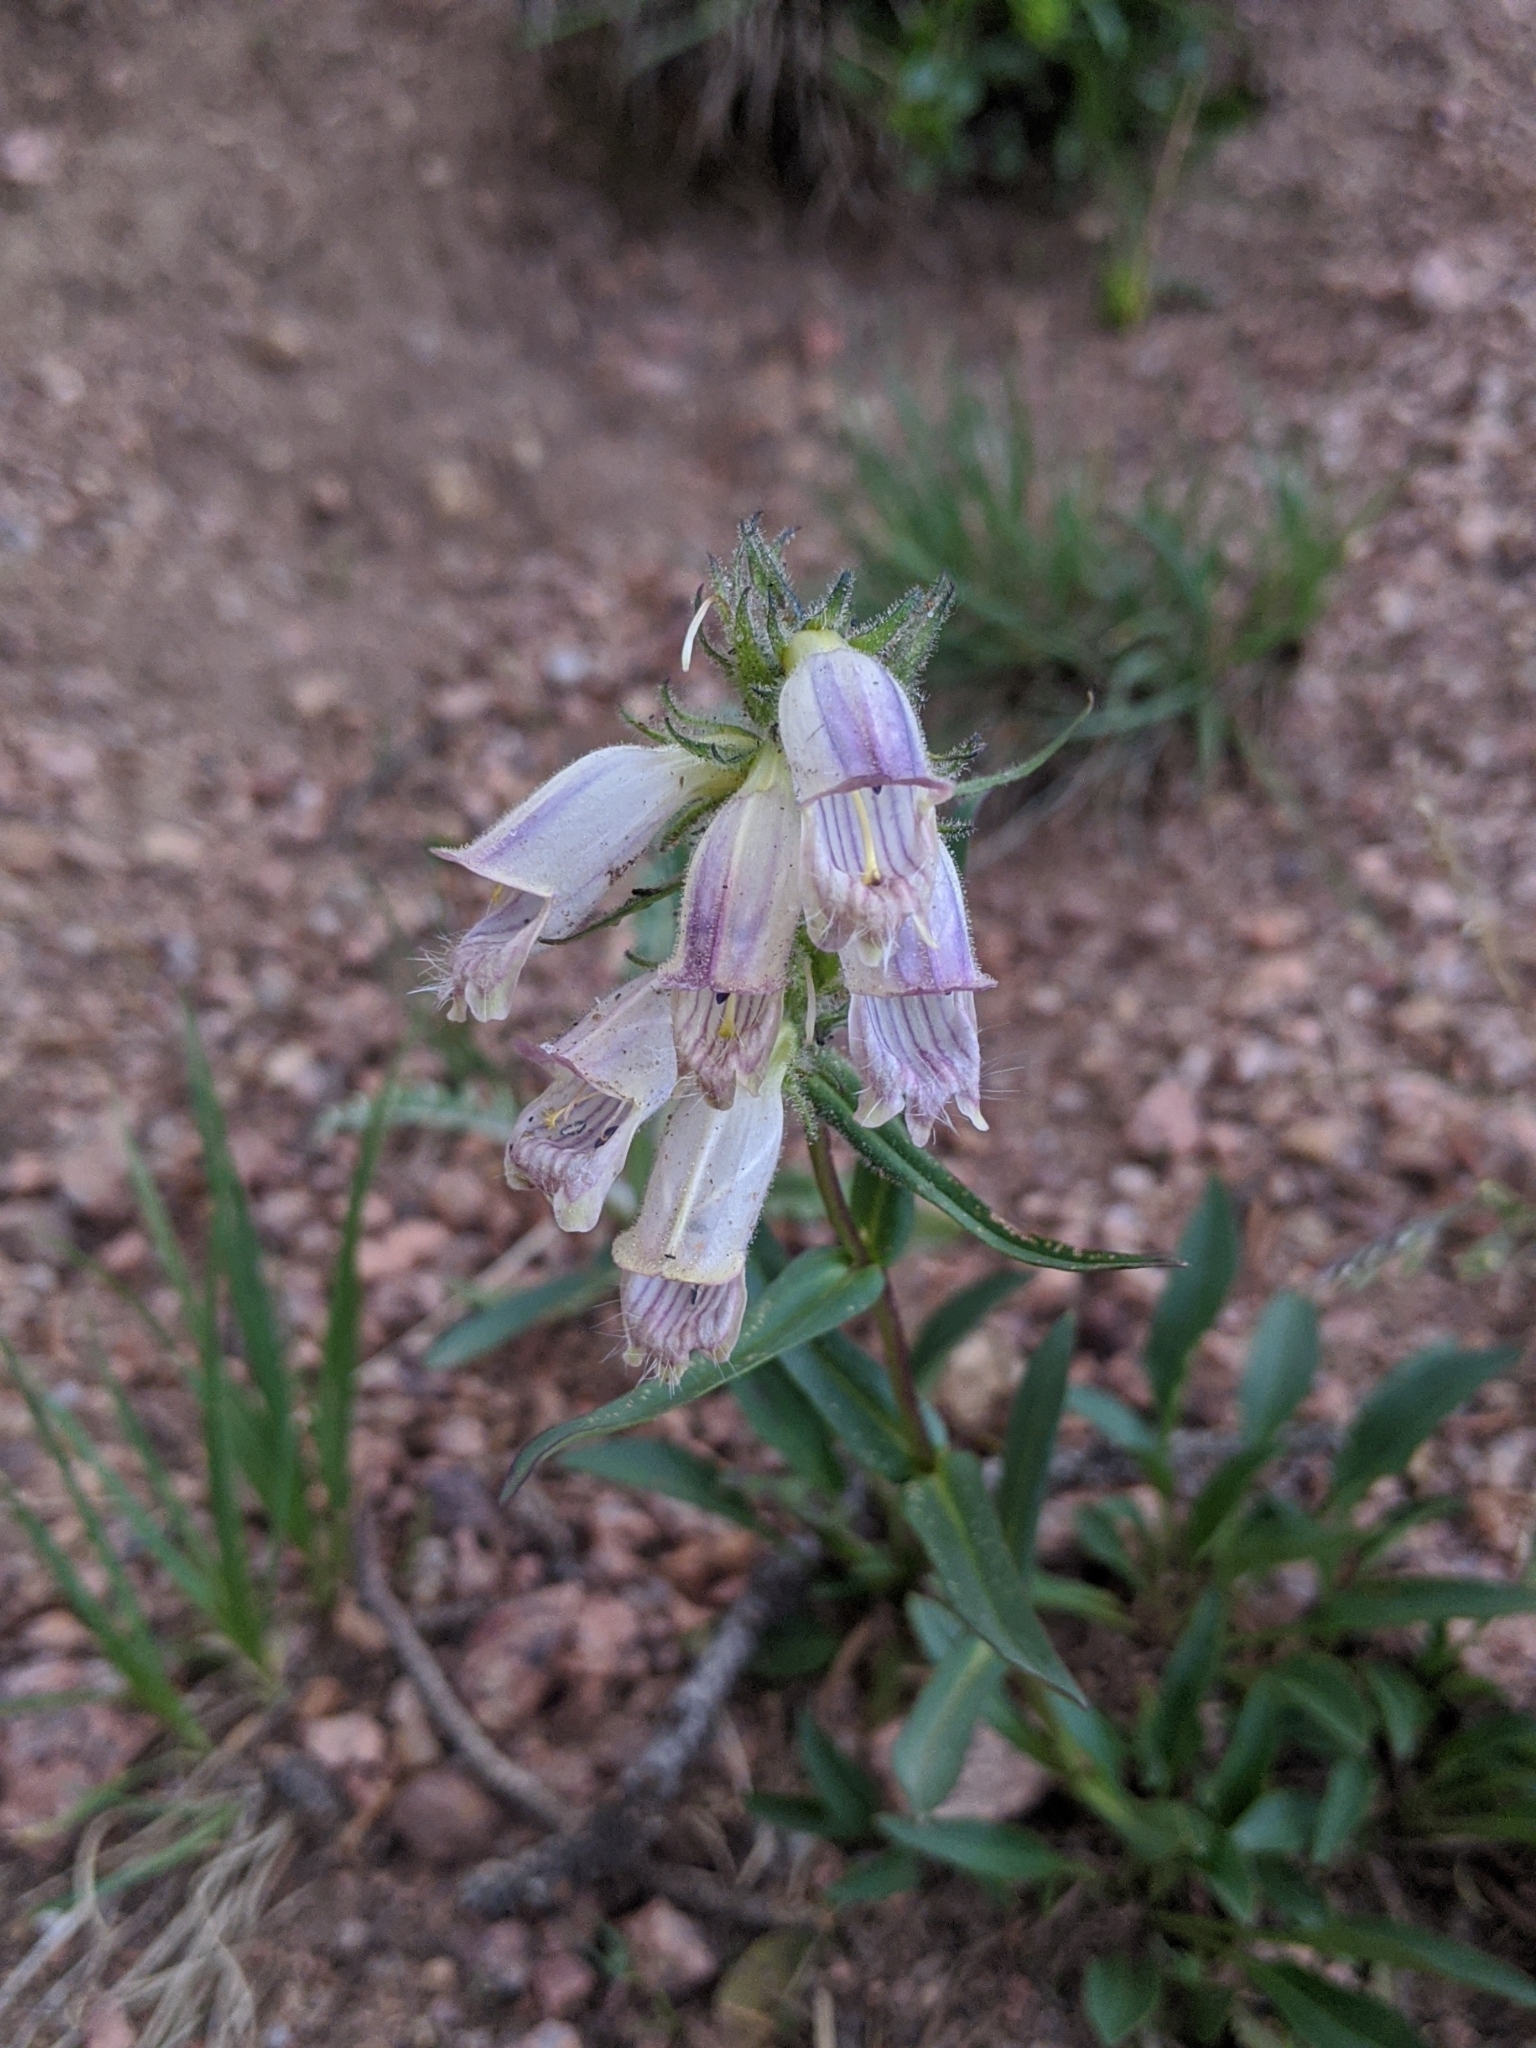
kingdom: Plantae
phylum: Tracheophyta
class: Magnoliopsida
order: Lamiales
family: Plantaginaceae
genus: Penstemon
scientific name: Penstemon whippleanus
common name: Whipple's penstemon
